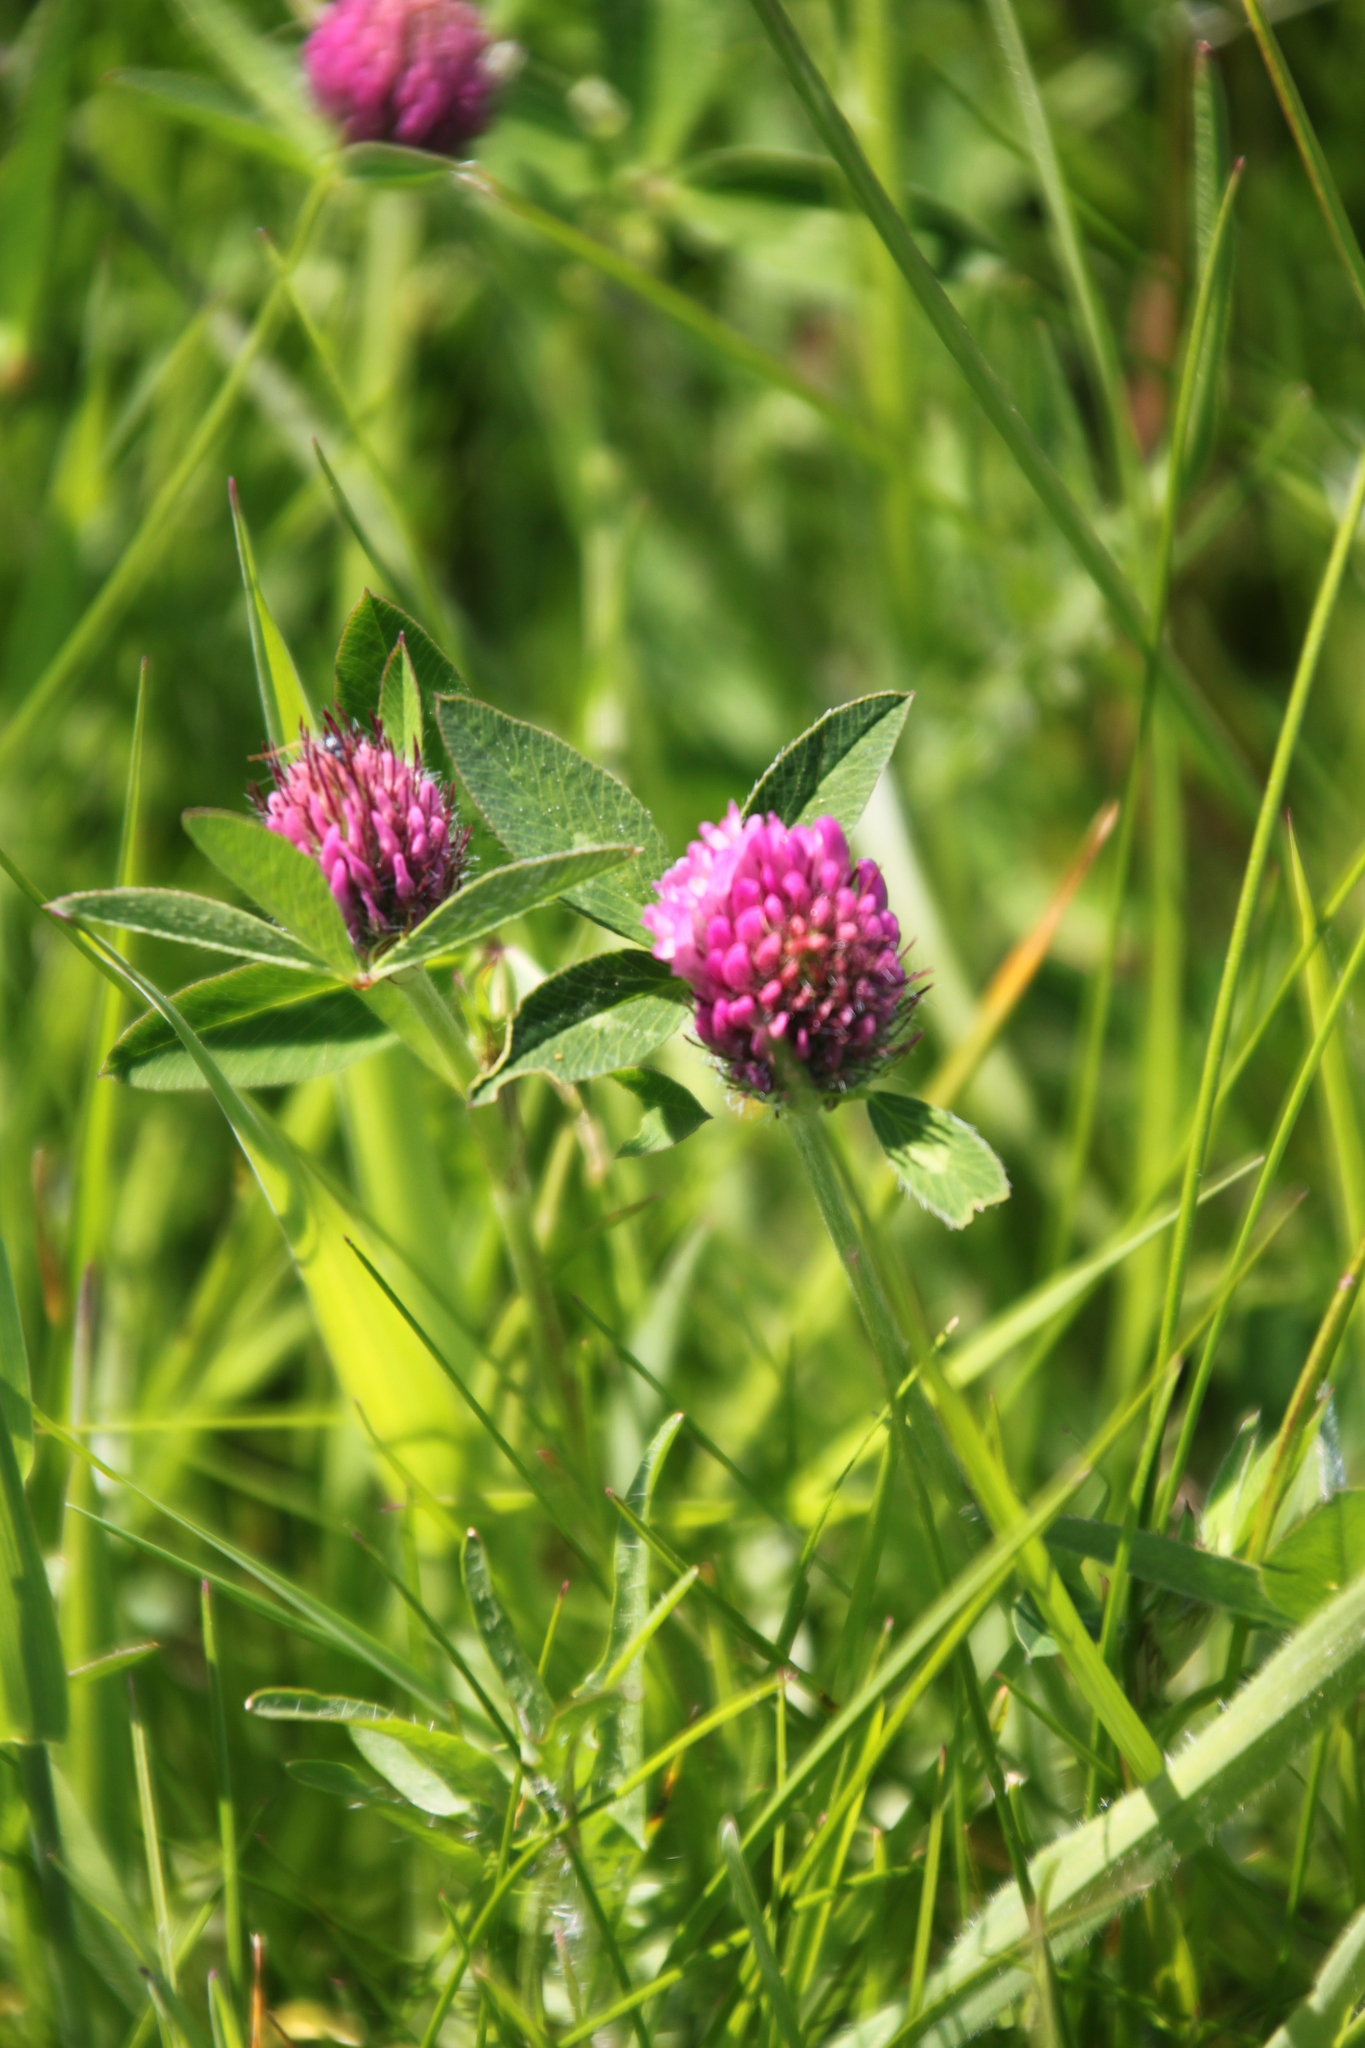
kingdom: Plantae
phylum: Tracheophyta
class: Magnoliopsida
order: Fabales
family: Fabaceae
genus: Trifolium
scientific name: Trifolium pratense
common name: Red clover
